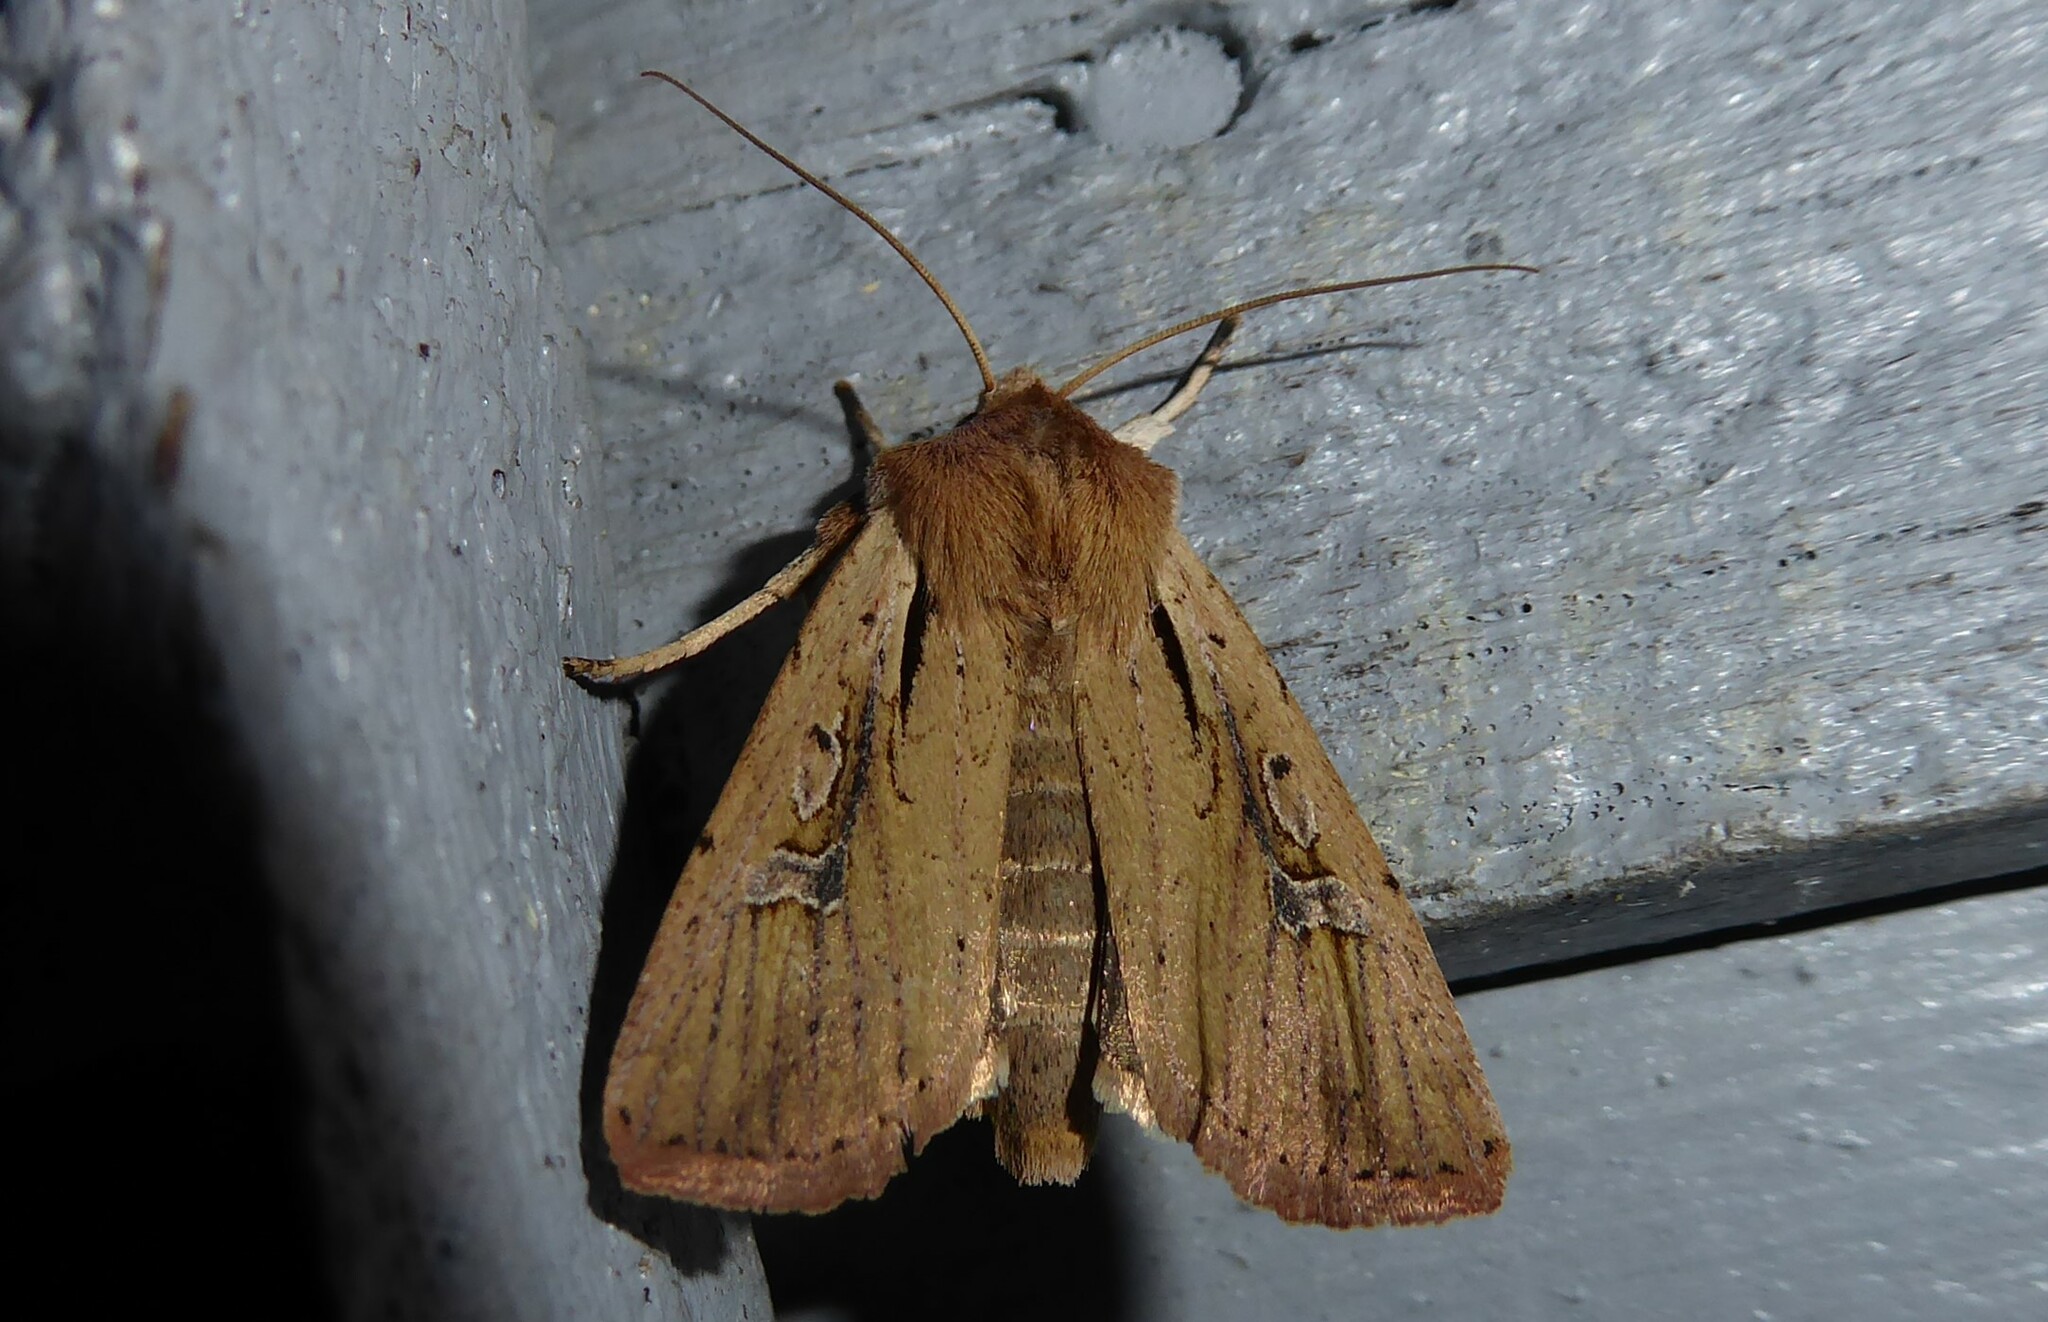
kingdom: Animalia
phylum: Arthropoda
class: Insecta
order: Lepidoptera
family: Noctuidae
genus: Ichneutica
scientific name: Ichneutica atristriga
